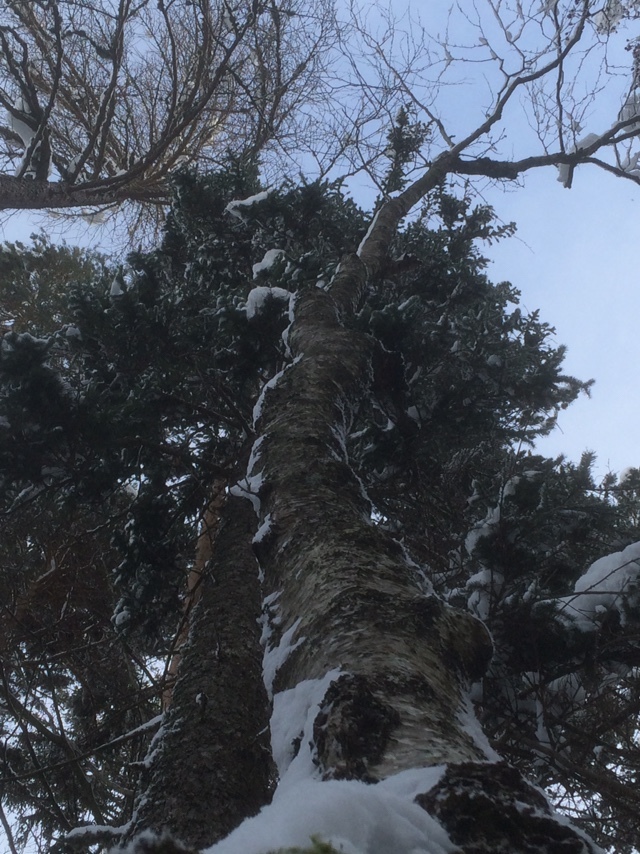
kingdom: Fungi
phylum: Basidiomycota
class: Agaricomycetes
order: Hymenochaetales
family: Hymenochaetaceae
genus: Inonotus
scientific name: Inonotus obliquus
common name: Chaga
